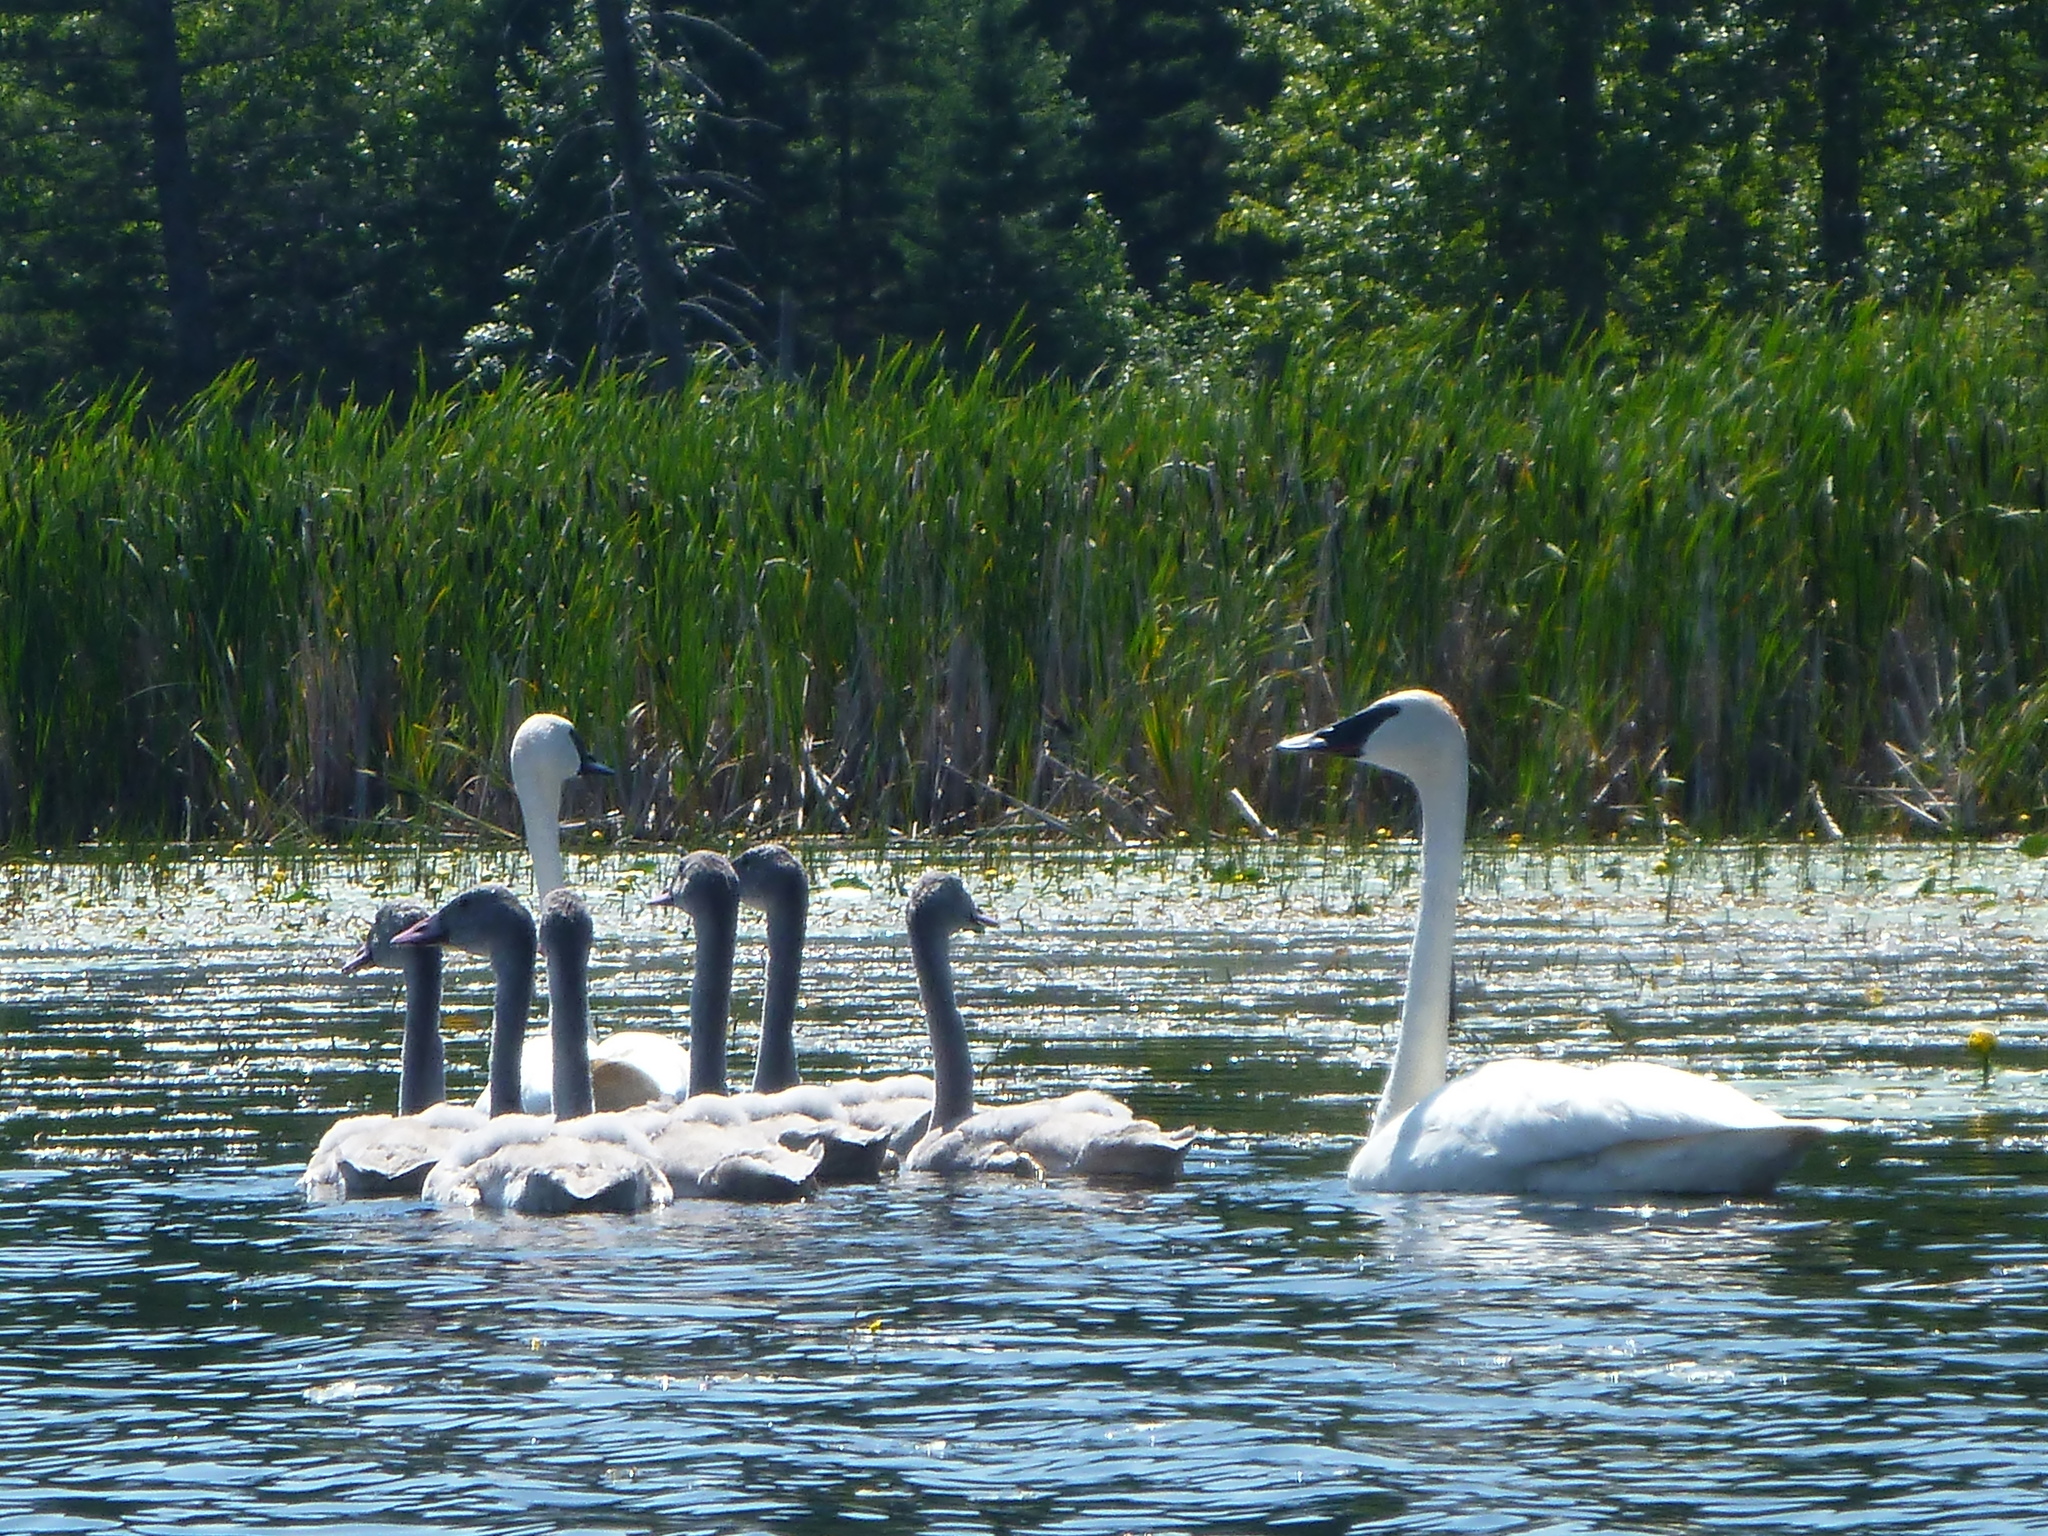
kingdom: Animalia
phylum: Chordata
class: Aves
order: Anseriformes
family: Anatidae
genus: Cygnus
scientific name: Cygnus buccinator
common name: Trumpeter swan
